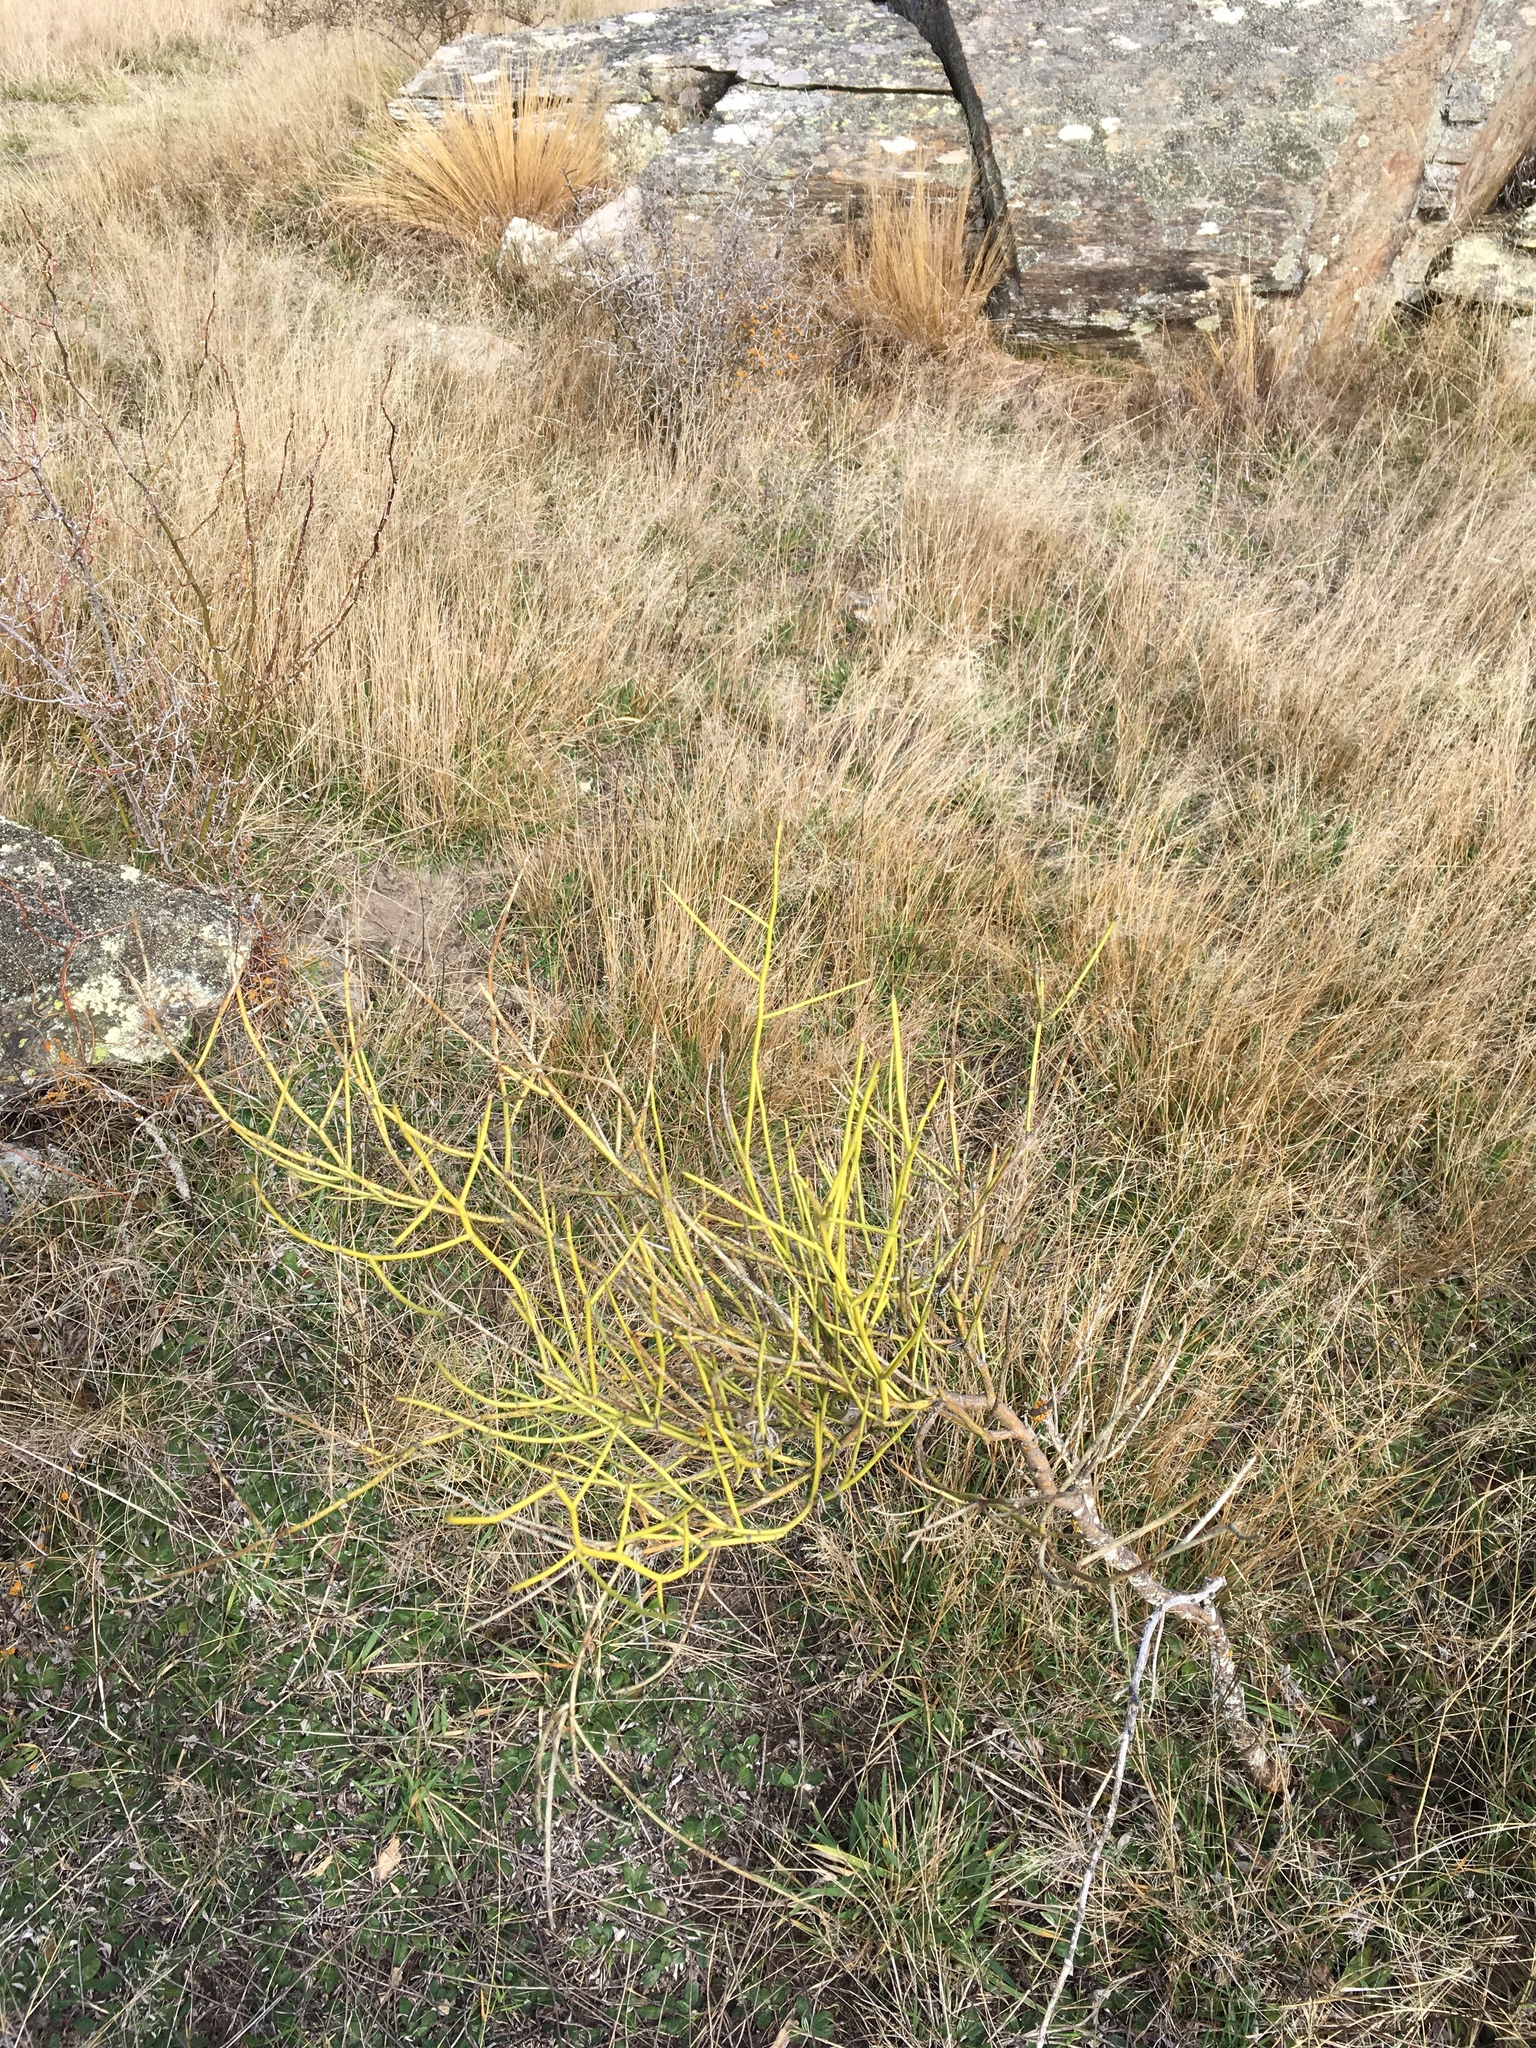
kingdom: Plantae
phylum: Tracheophyta
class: Magnoliopsida
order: Fabales
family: Fabaceae
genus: Carmichaelia
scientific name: Carmichaelia petriei
